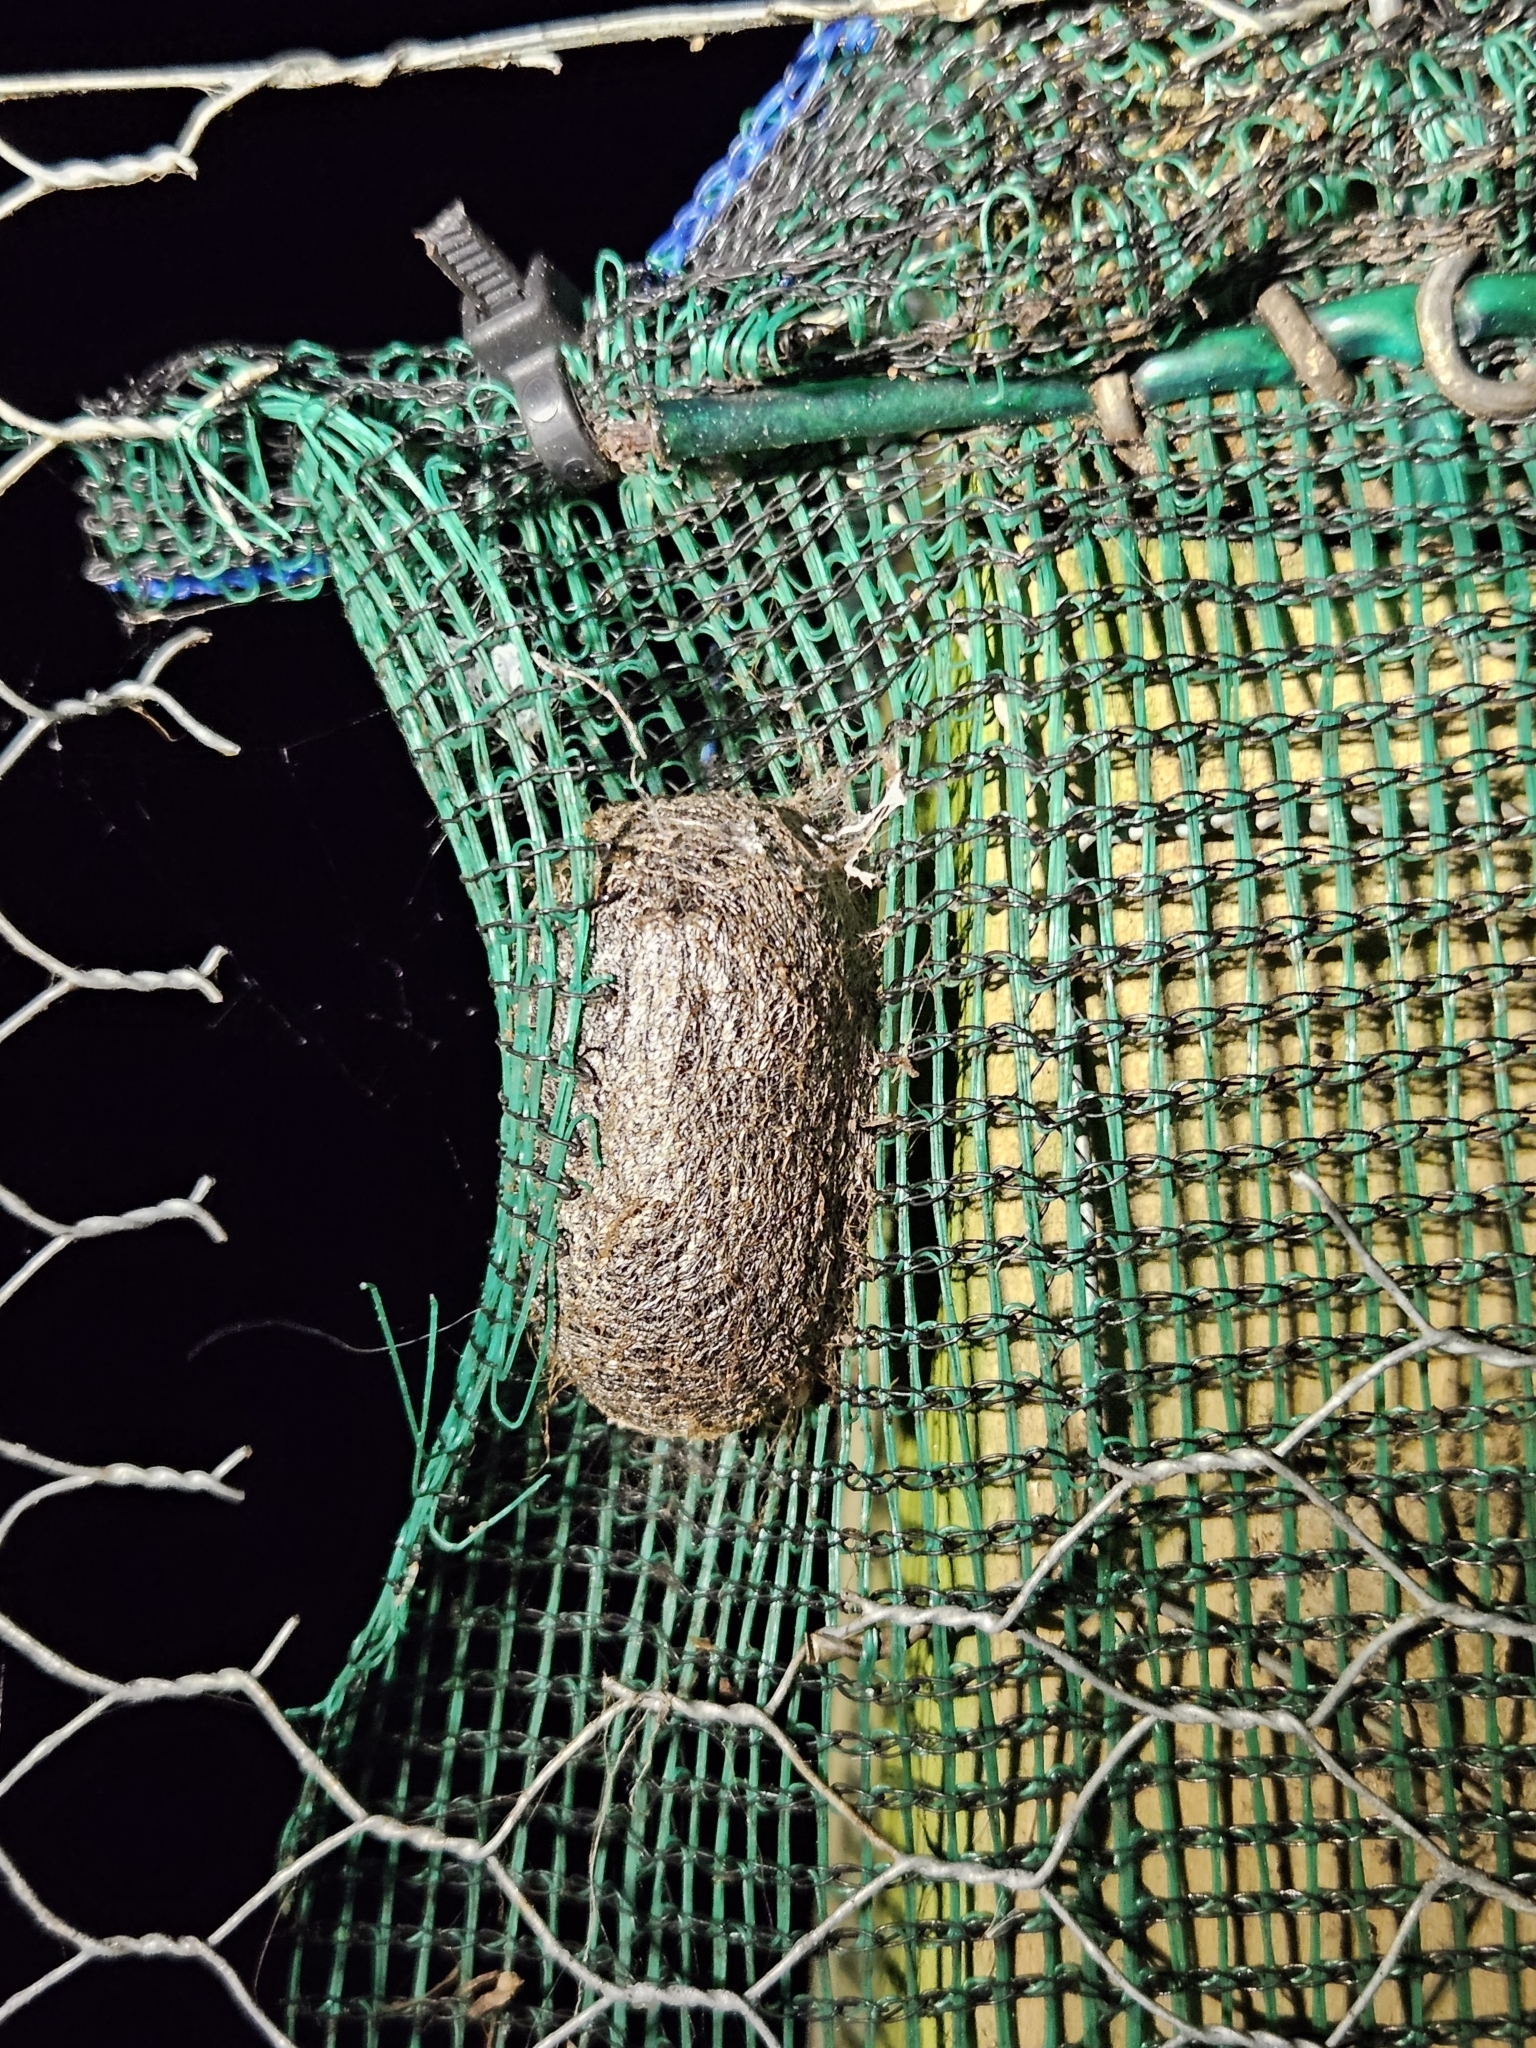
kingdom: Animalia
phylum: Arthropoda
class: Insecta
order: Lepidoptera
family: Saturniidae
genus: Opodiphthera
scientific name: Opodiphthera
